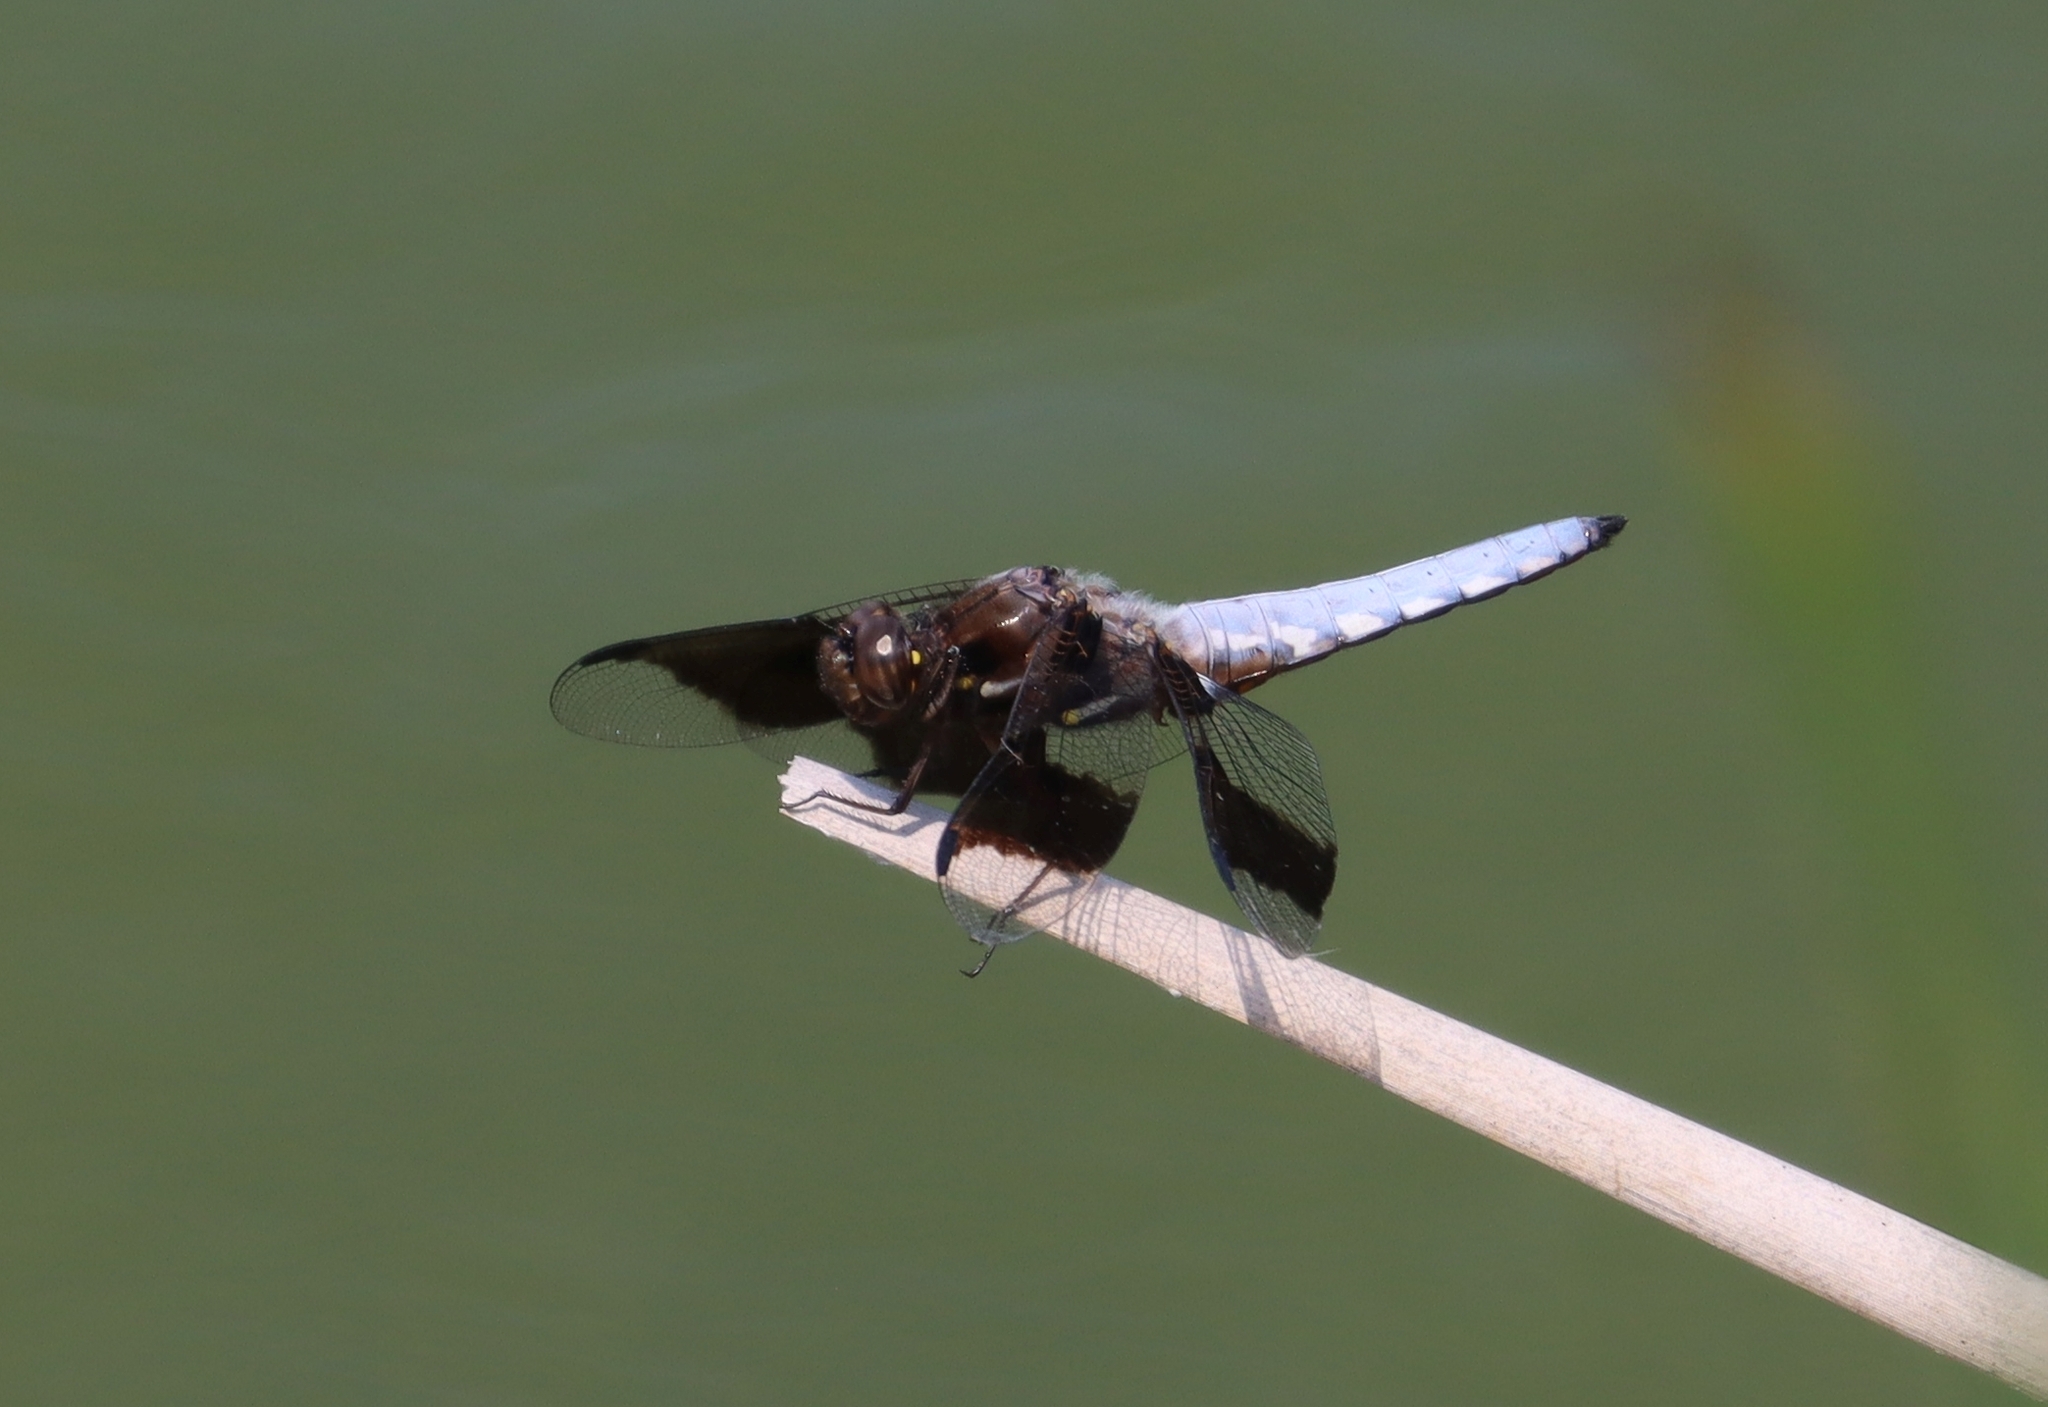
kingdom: Animalia
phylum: Arthropoda
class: Insecta
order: Odonata
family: Libellulidae
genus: Plathemis
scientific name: Plathemis lydia
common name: Common whitetail
